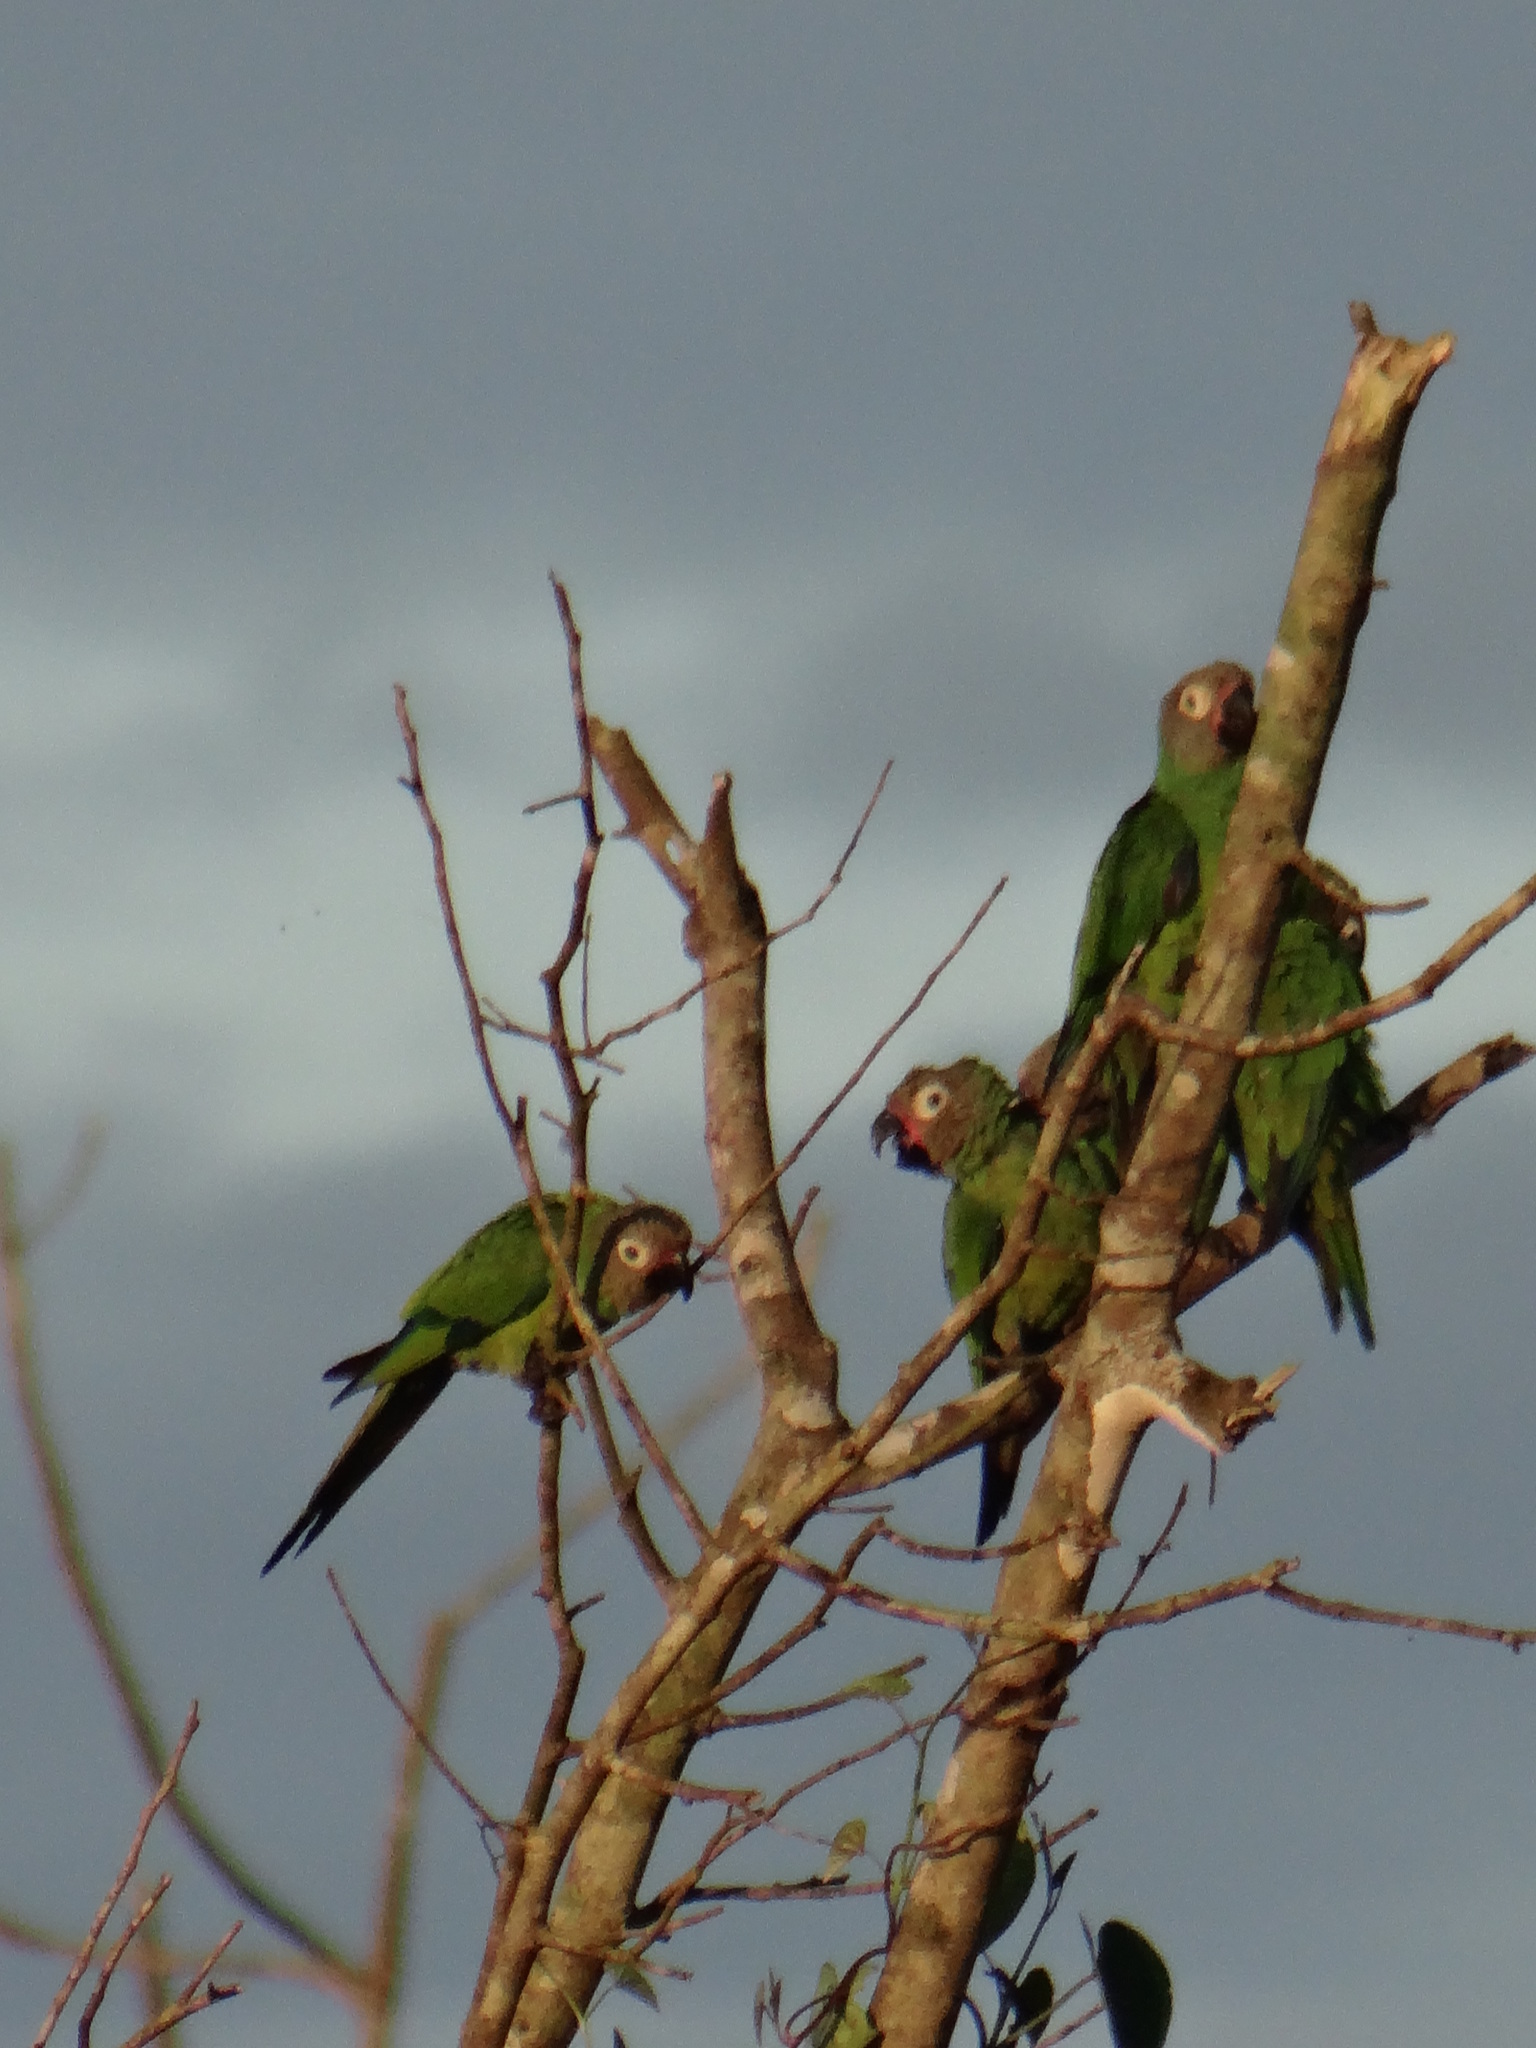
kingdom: Animalia
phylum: Chordata
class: Aves
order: Psittaciformes
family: Psittacidae
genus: Aratinga
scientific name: Aratinga weddellii
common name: Dusky-headed parakeet
